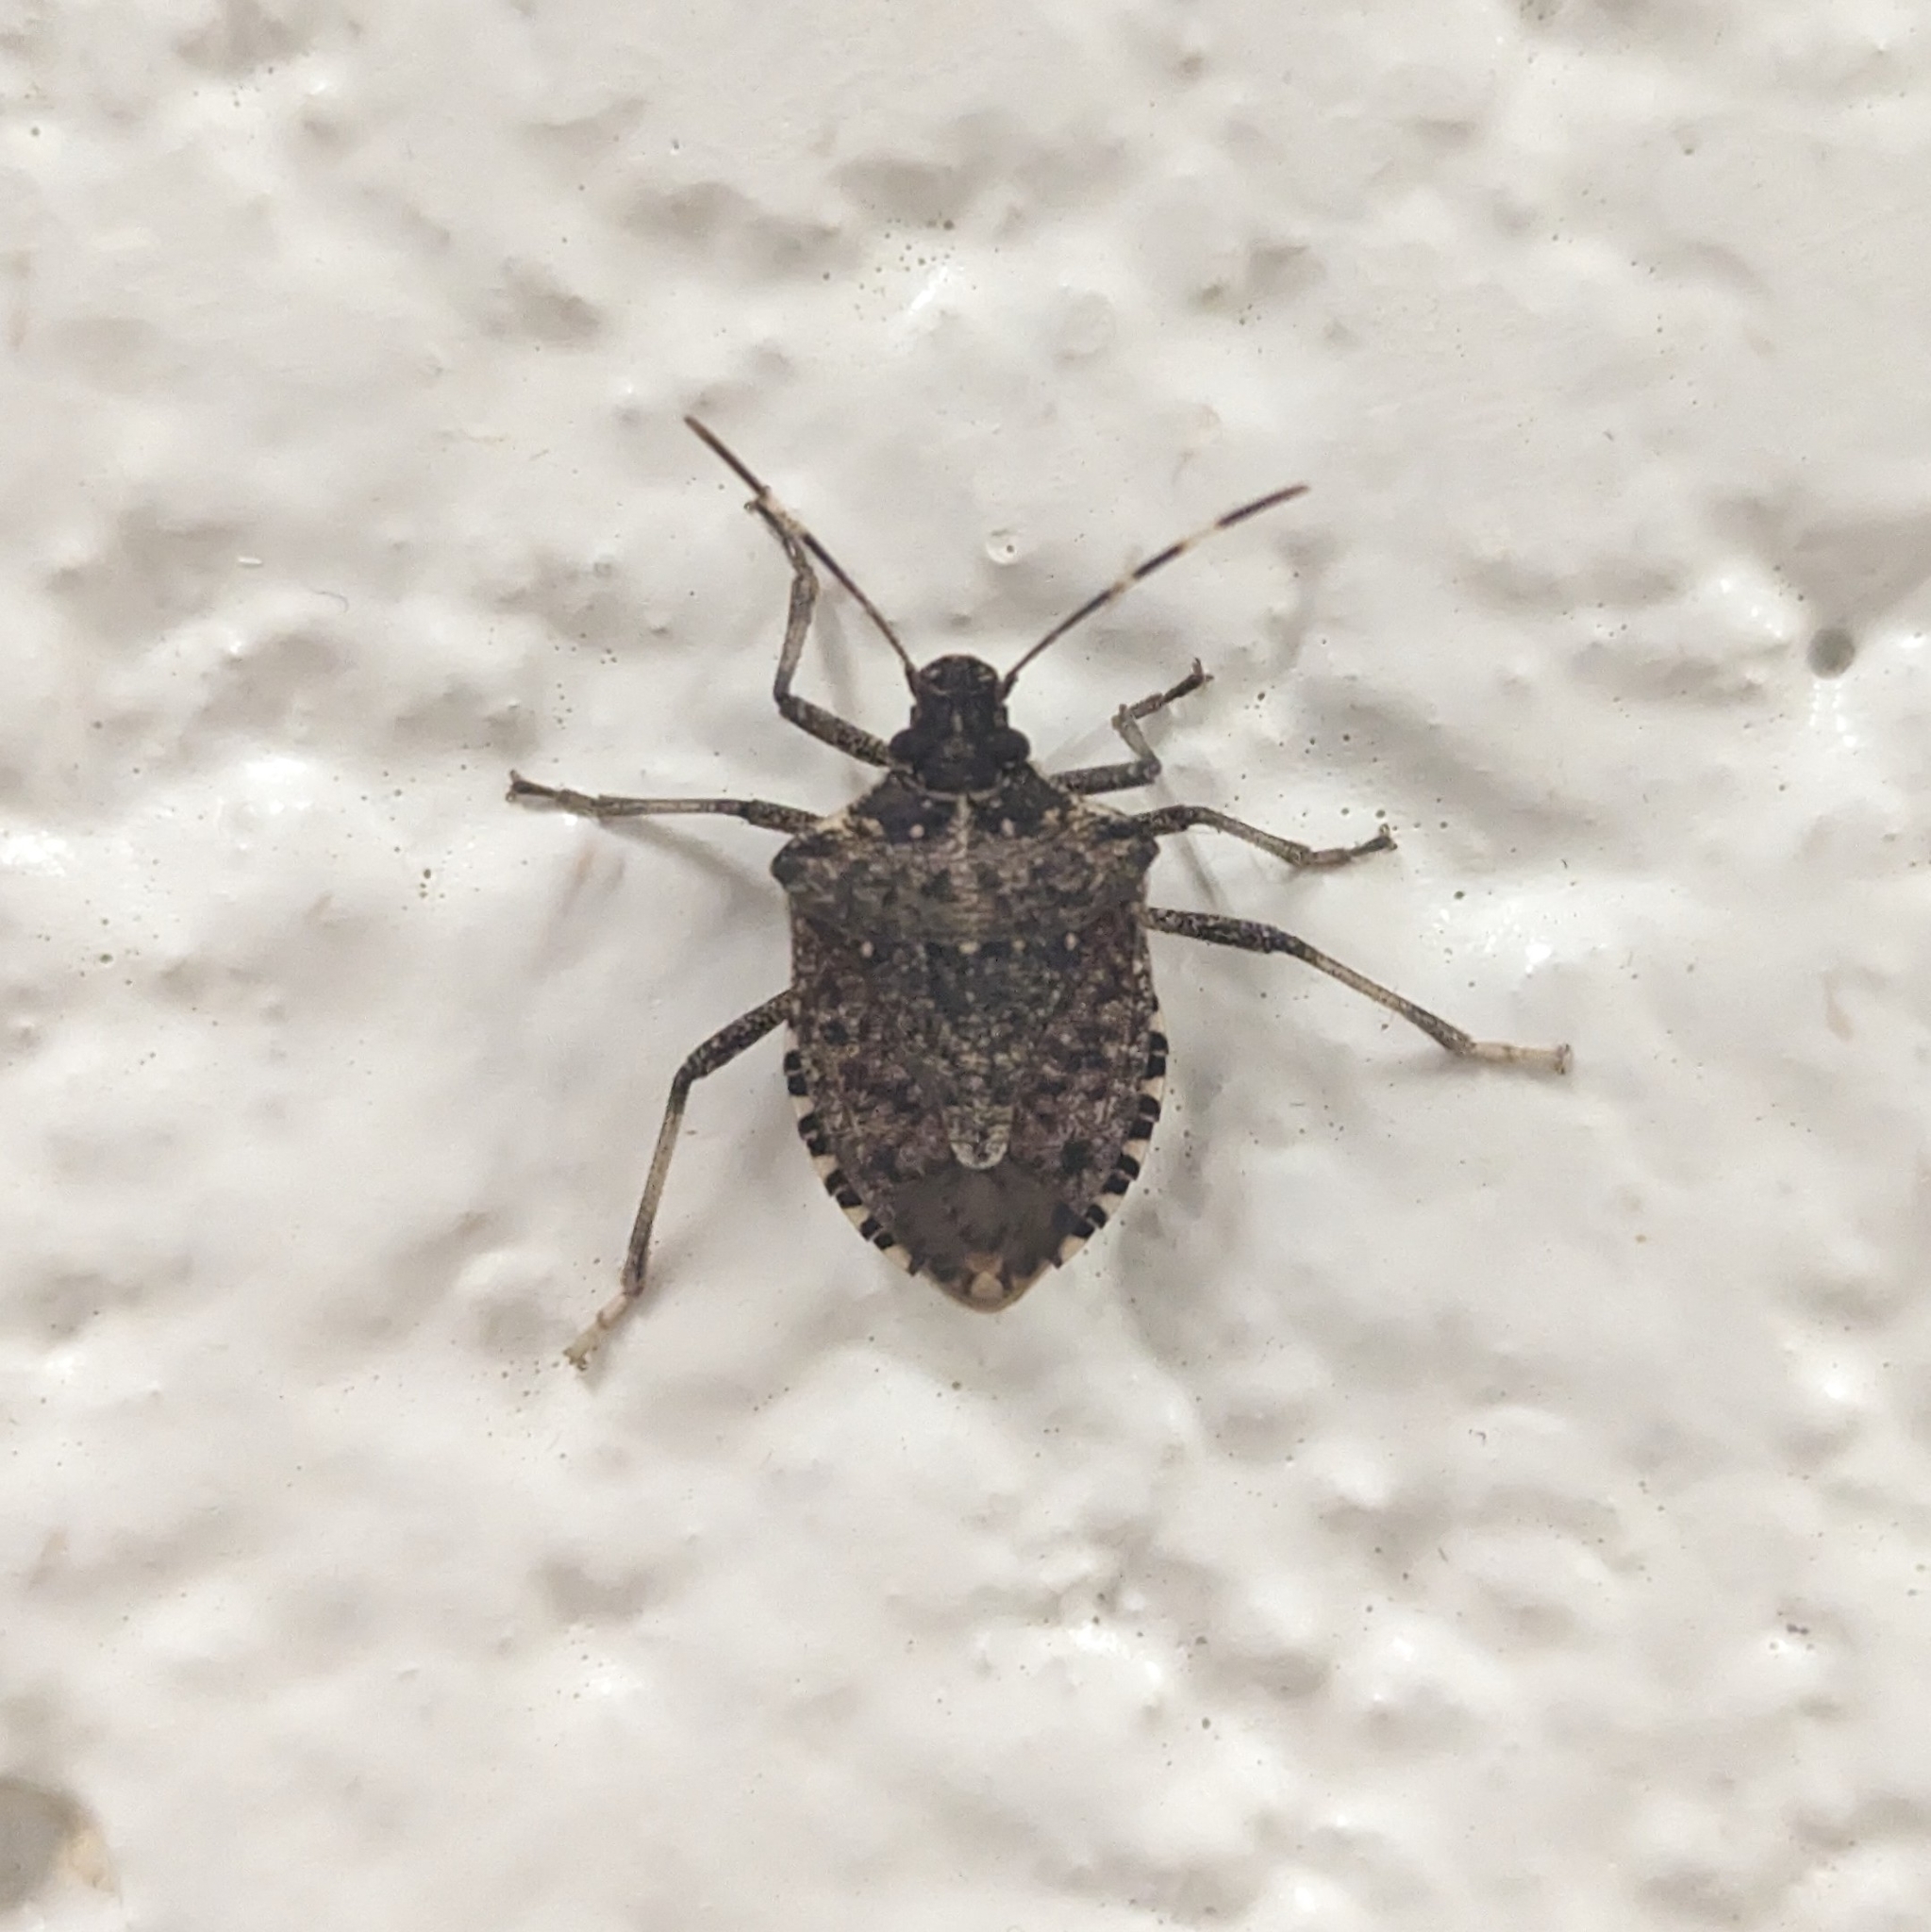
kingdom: Animalia
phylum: Arthropoda
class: Insecta
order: Hemiptera
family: Pentatomidae
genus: Halyomorpha
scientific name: Halyomorpha halys
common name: Brown marmorated stink bug
